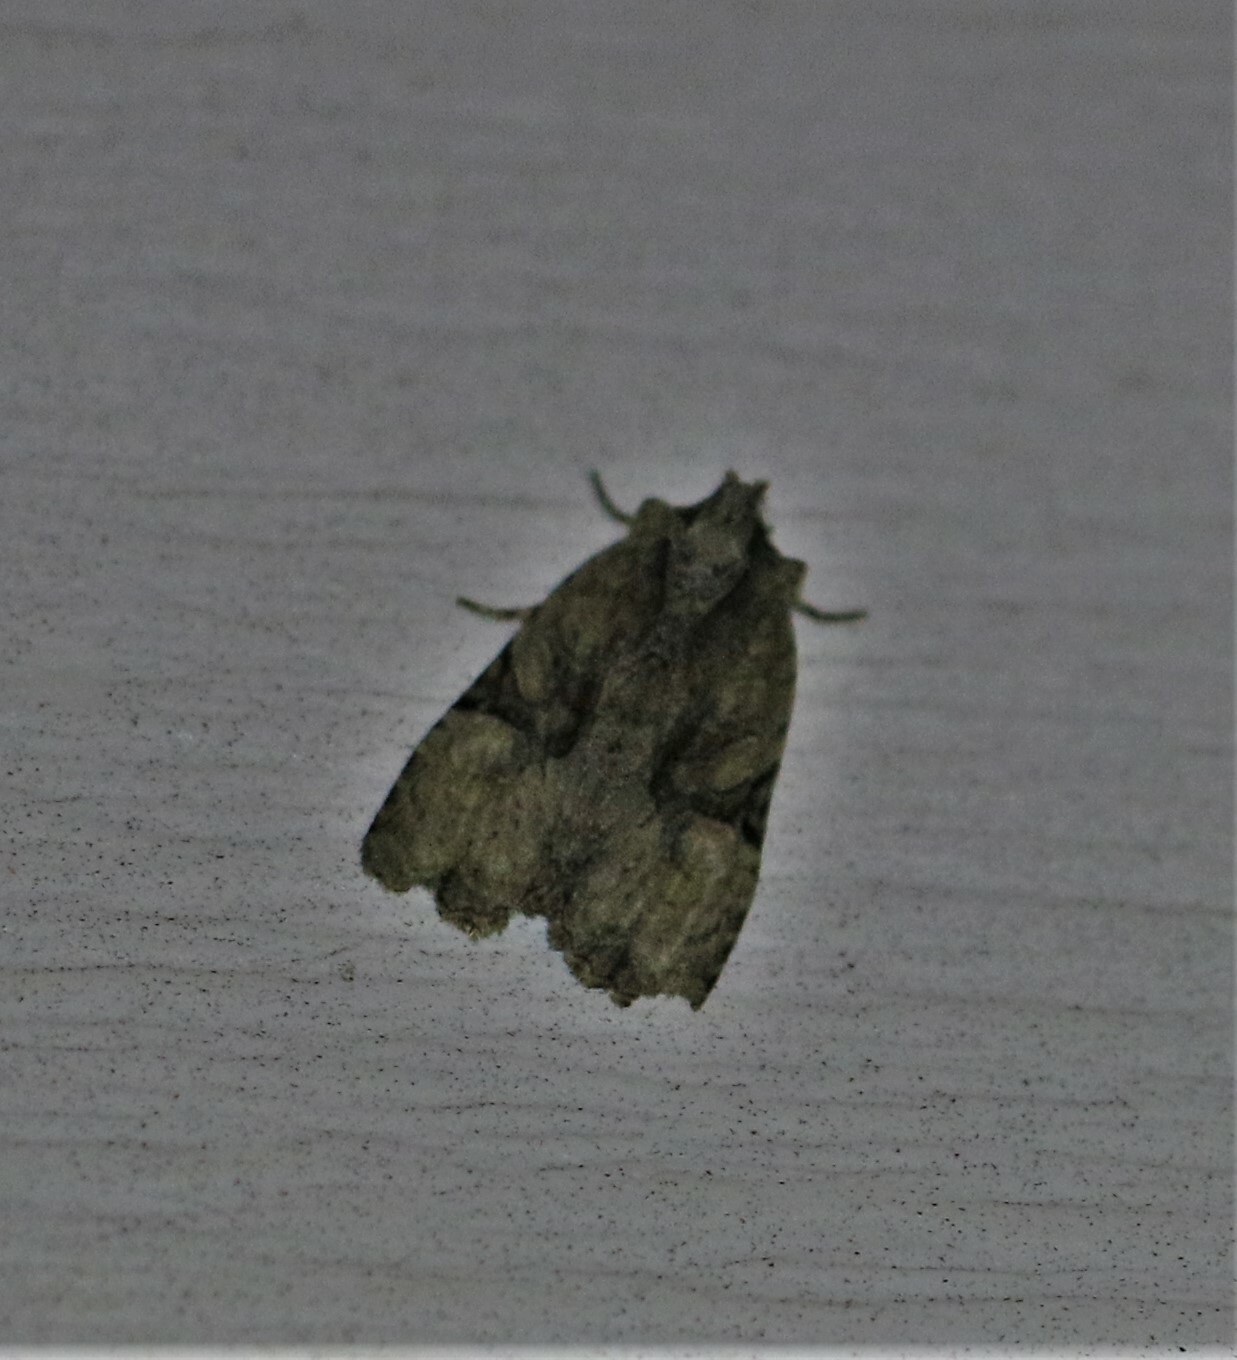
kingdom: Animalia
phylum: Arthropoda
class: Insecta
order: Lepidoptera
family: Noctuidae
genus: Oligia
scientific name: Oligia modica
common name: Black-banded brocade
